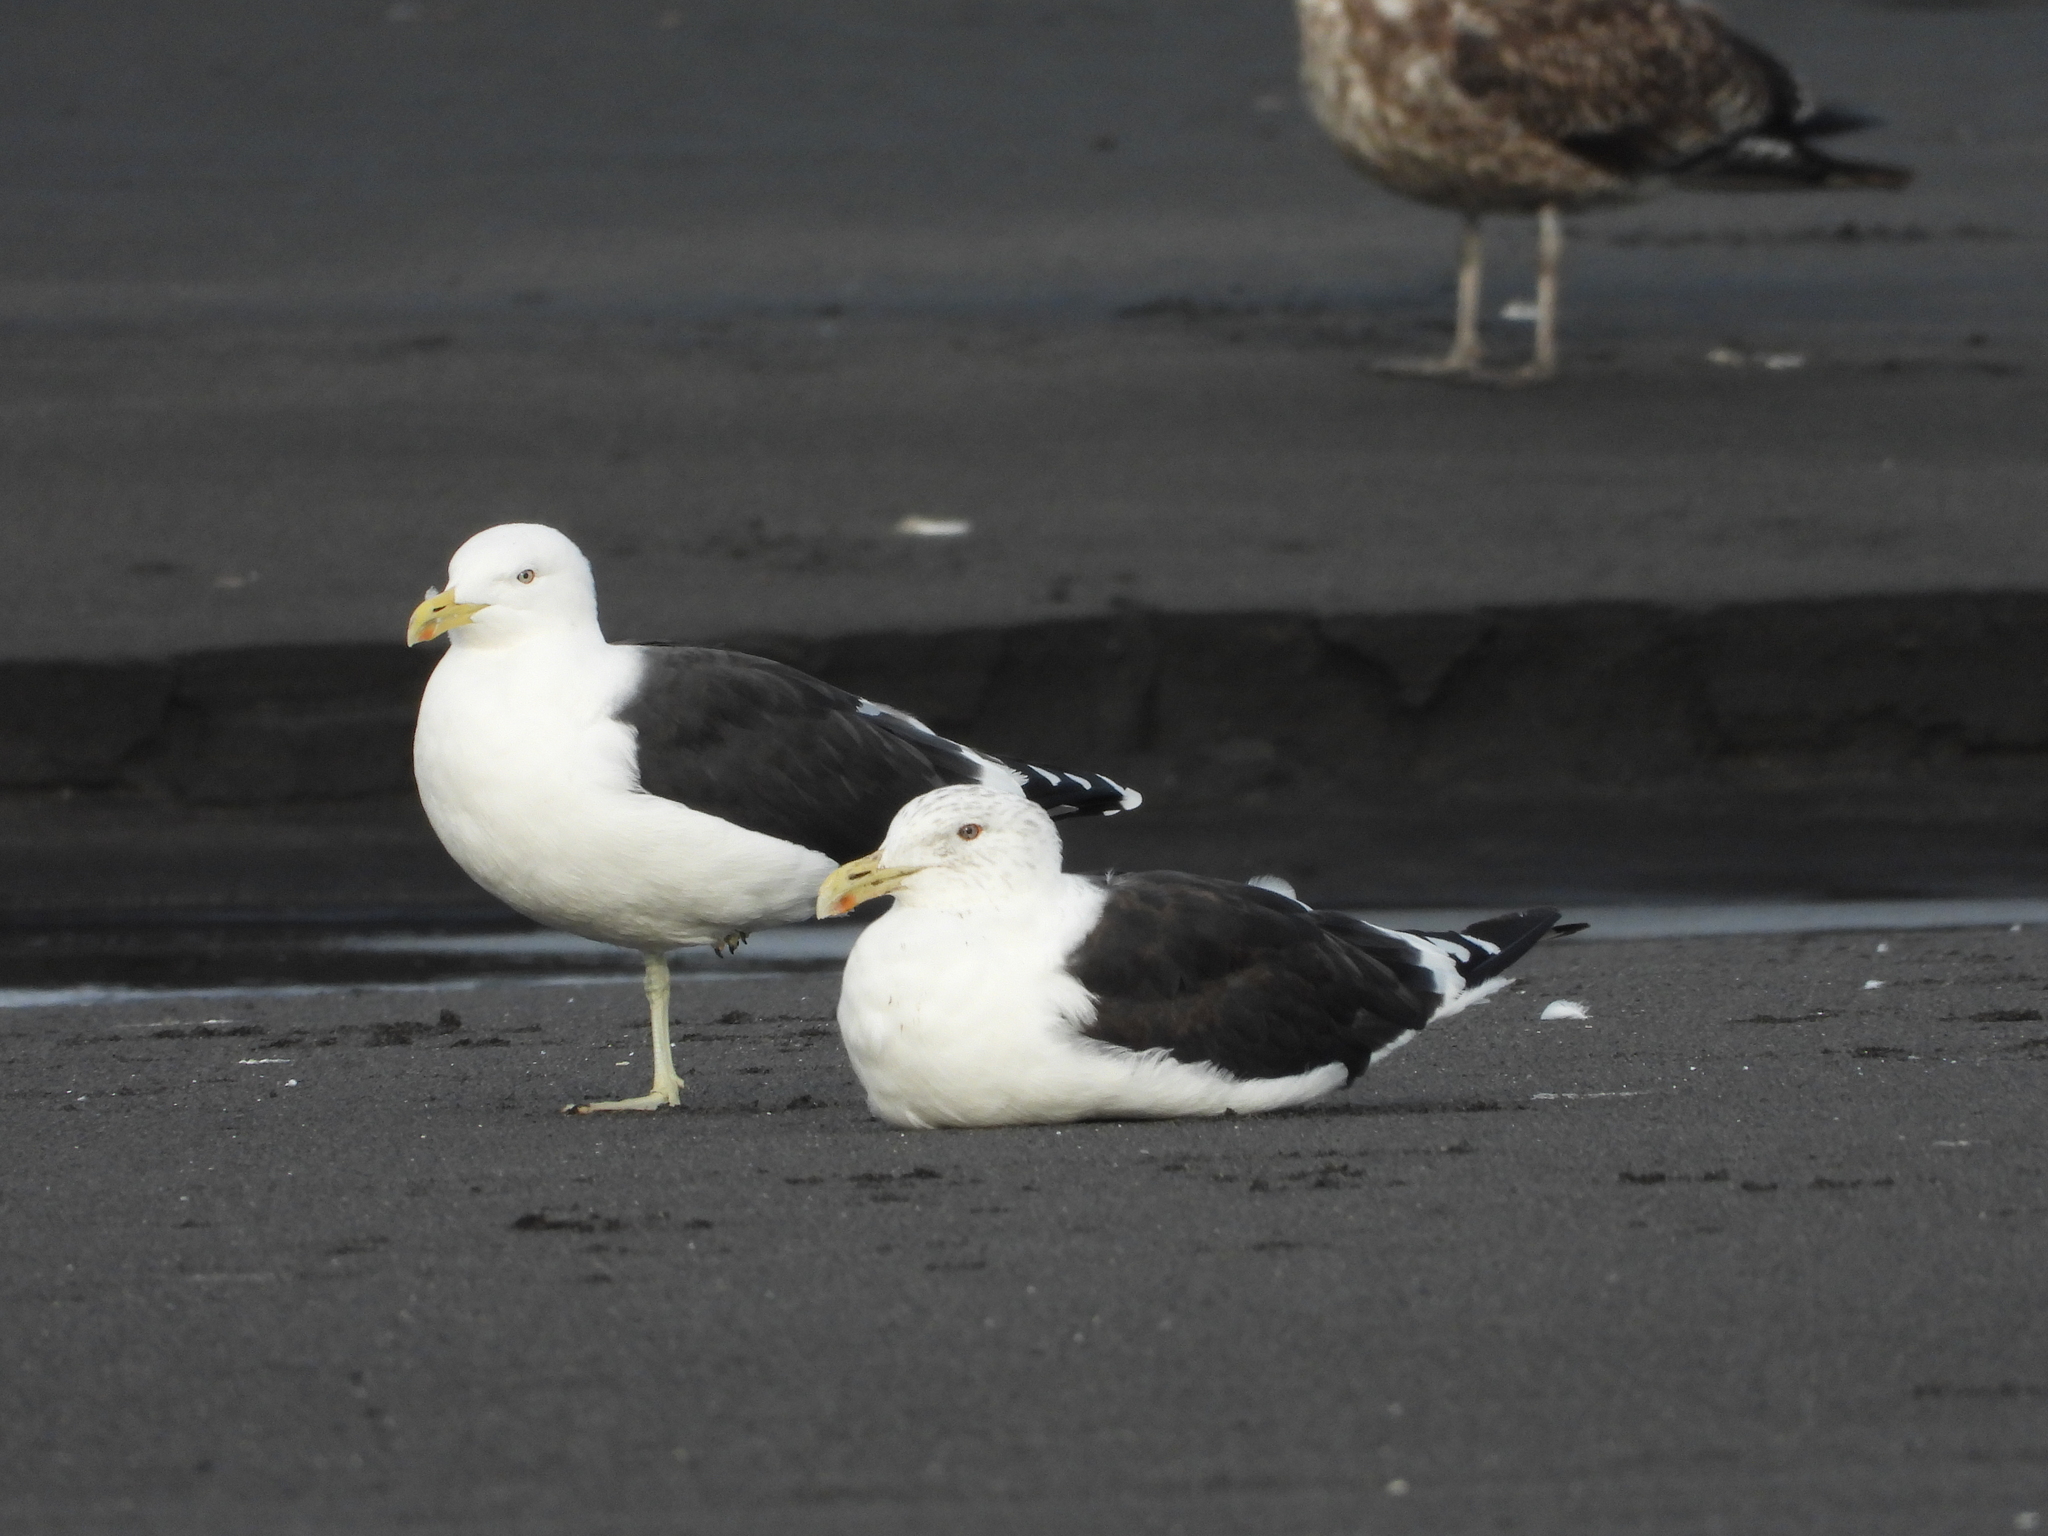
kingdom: Animalia
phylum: Chordata
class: Aves
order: Charadriiformes
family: Laridae
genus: Larus
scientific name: Larus dominicanus
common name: Kelp gull
